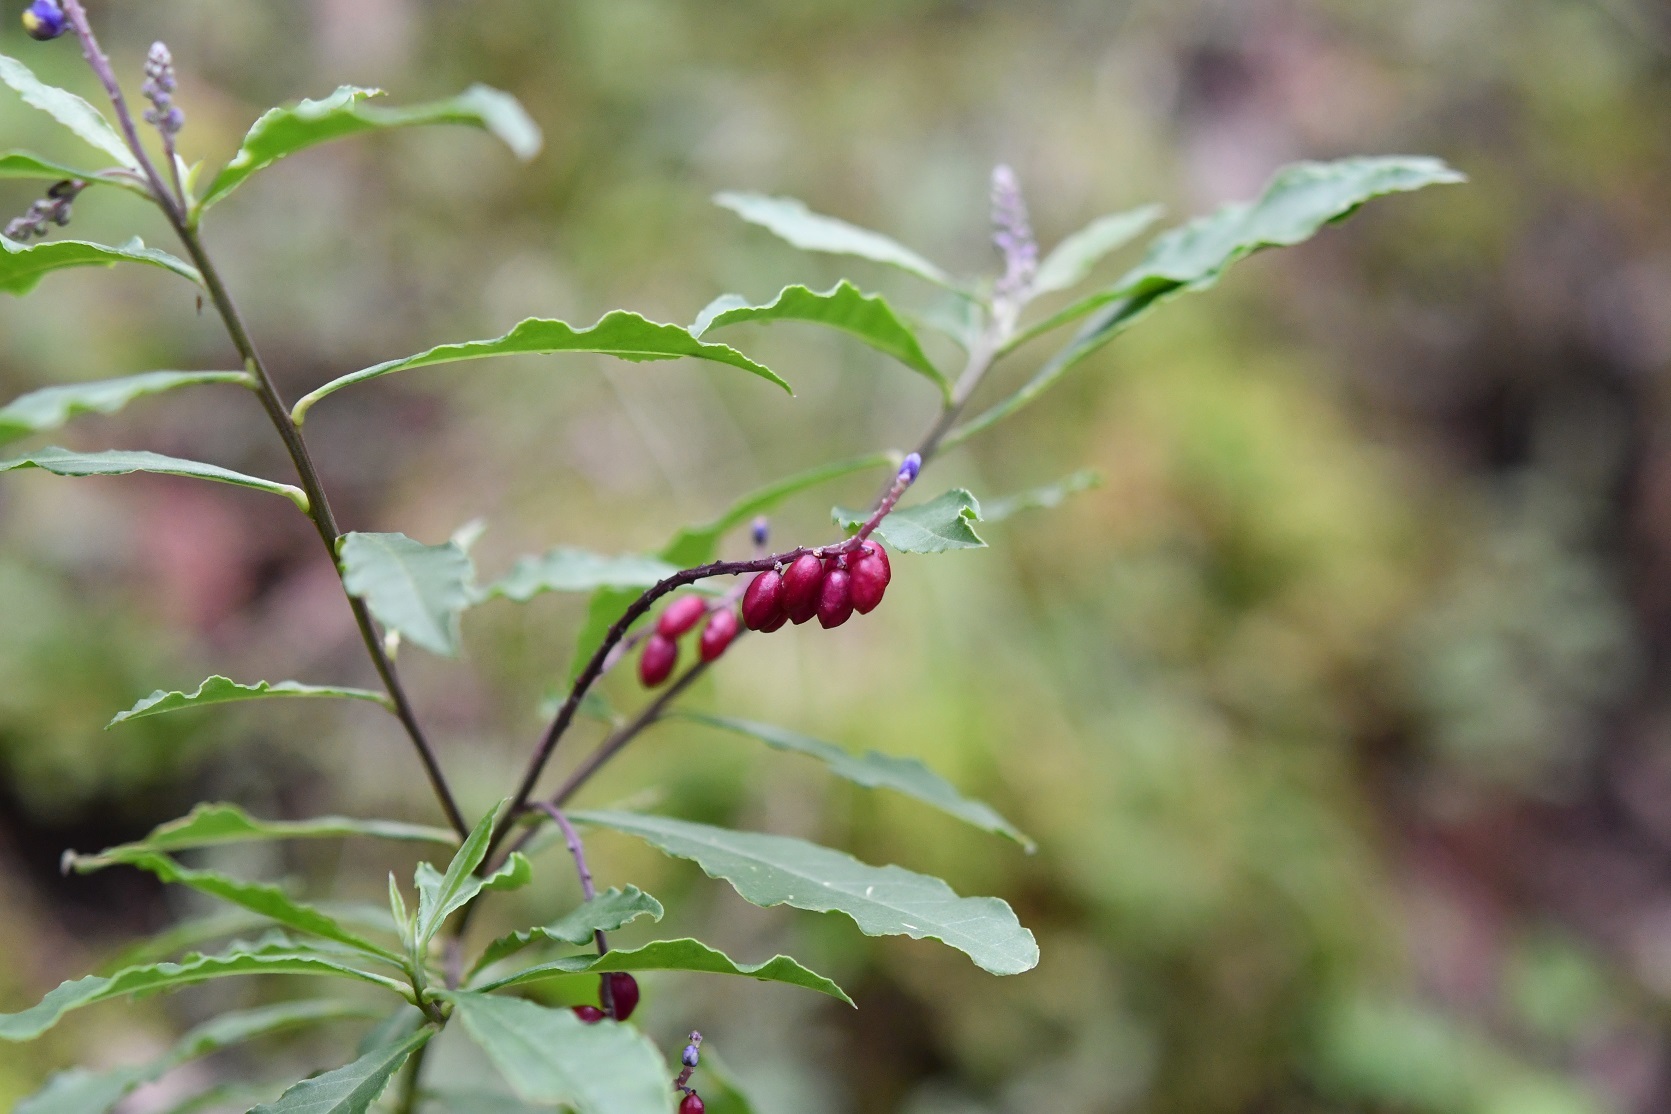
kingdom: Plantae
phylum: Tracheophyta
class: Magnoliopsida
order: Fabales
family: Polygalaceae
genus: Monnina
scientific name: Monnina xalapensis
